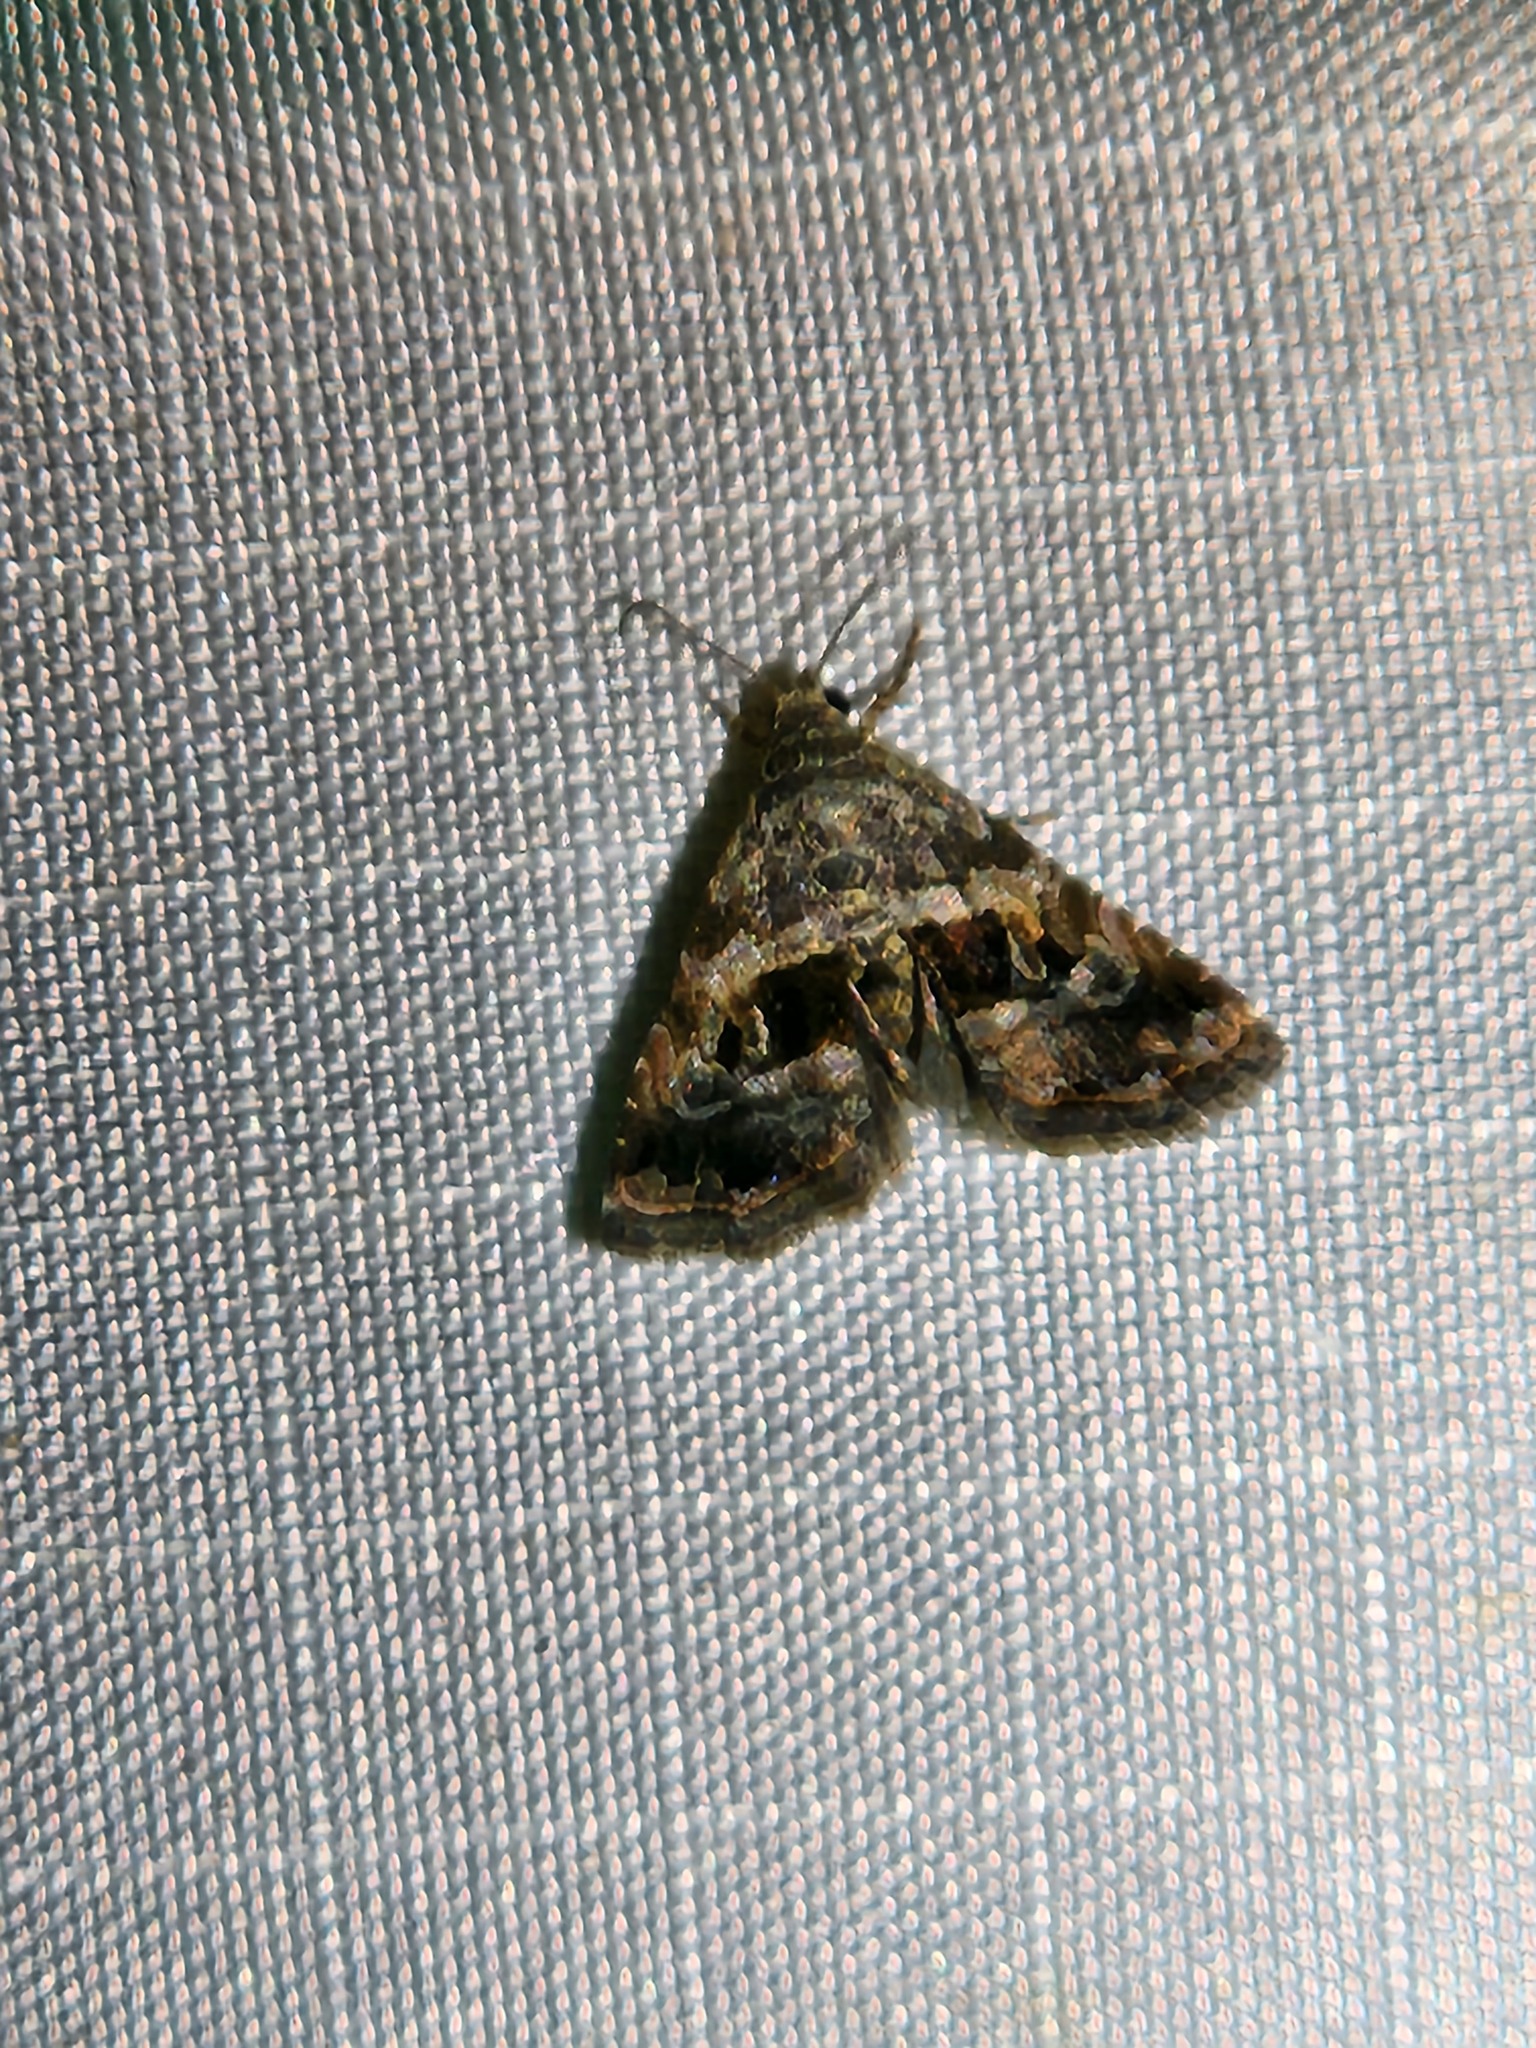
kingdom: Animalia
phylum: Arthropoda
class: Insecta
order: Lepidoptera
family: Noctuidae
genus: Tripudia
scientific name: Tripudia quadrifera
